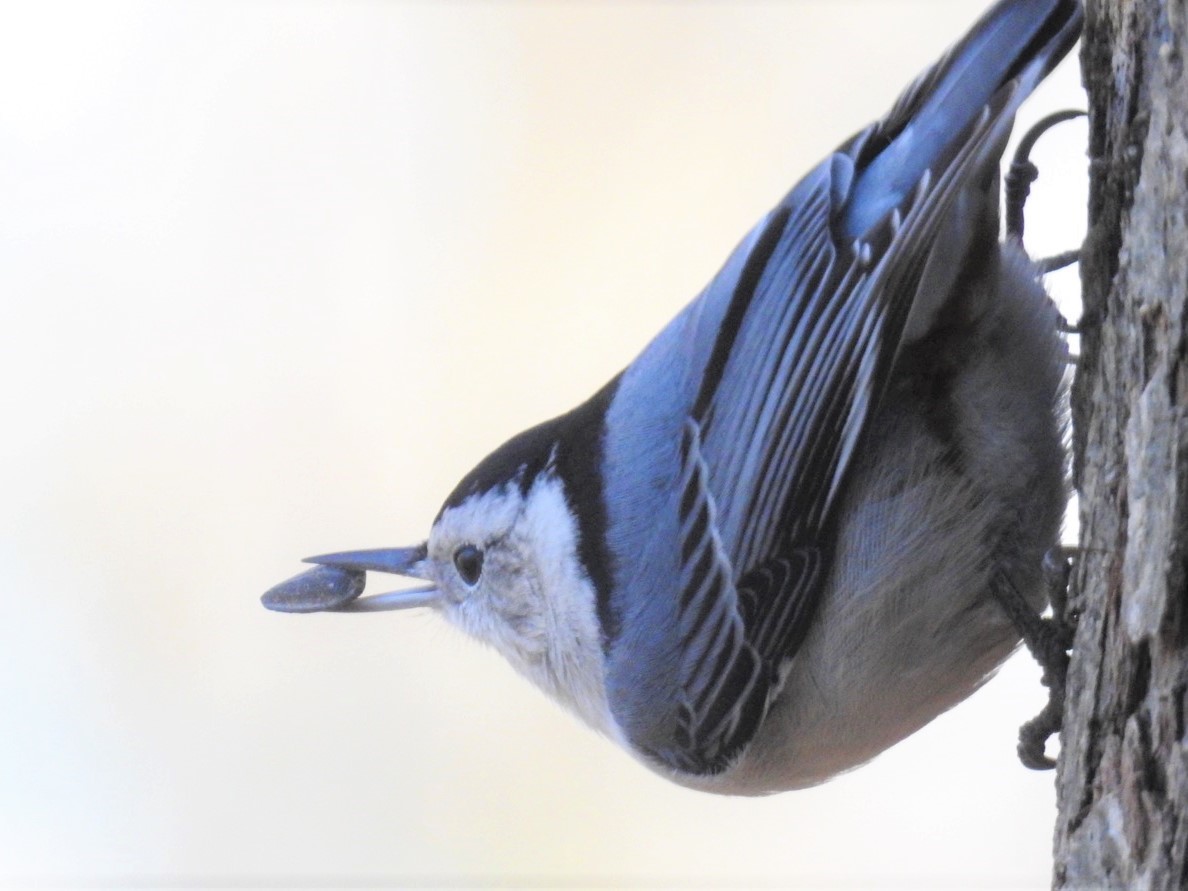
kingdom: Animalia
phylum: Chordata
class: Aves
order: Passeriformes
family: Sittidae
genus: Sitta
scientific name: Sitta carolinensis
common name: White-breasted nuthatch
